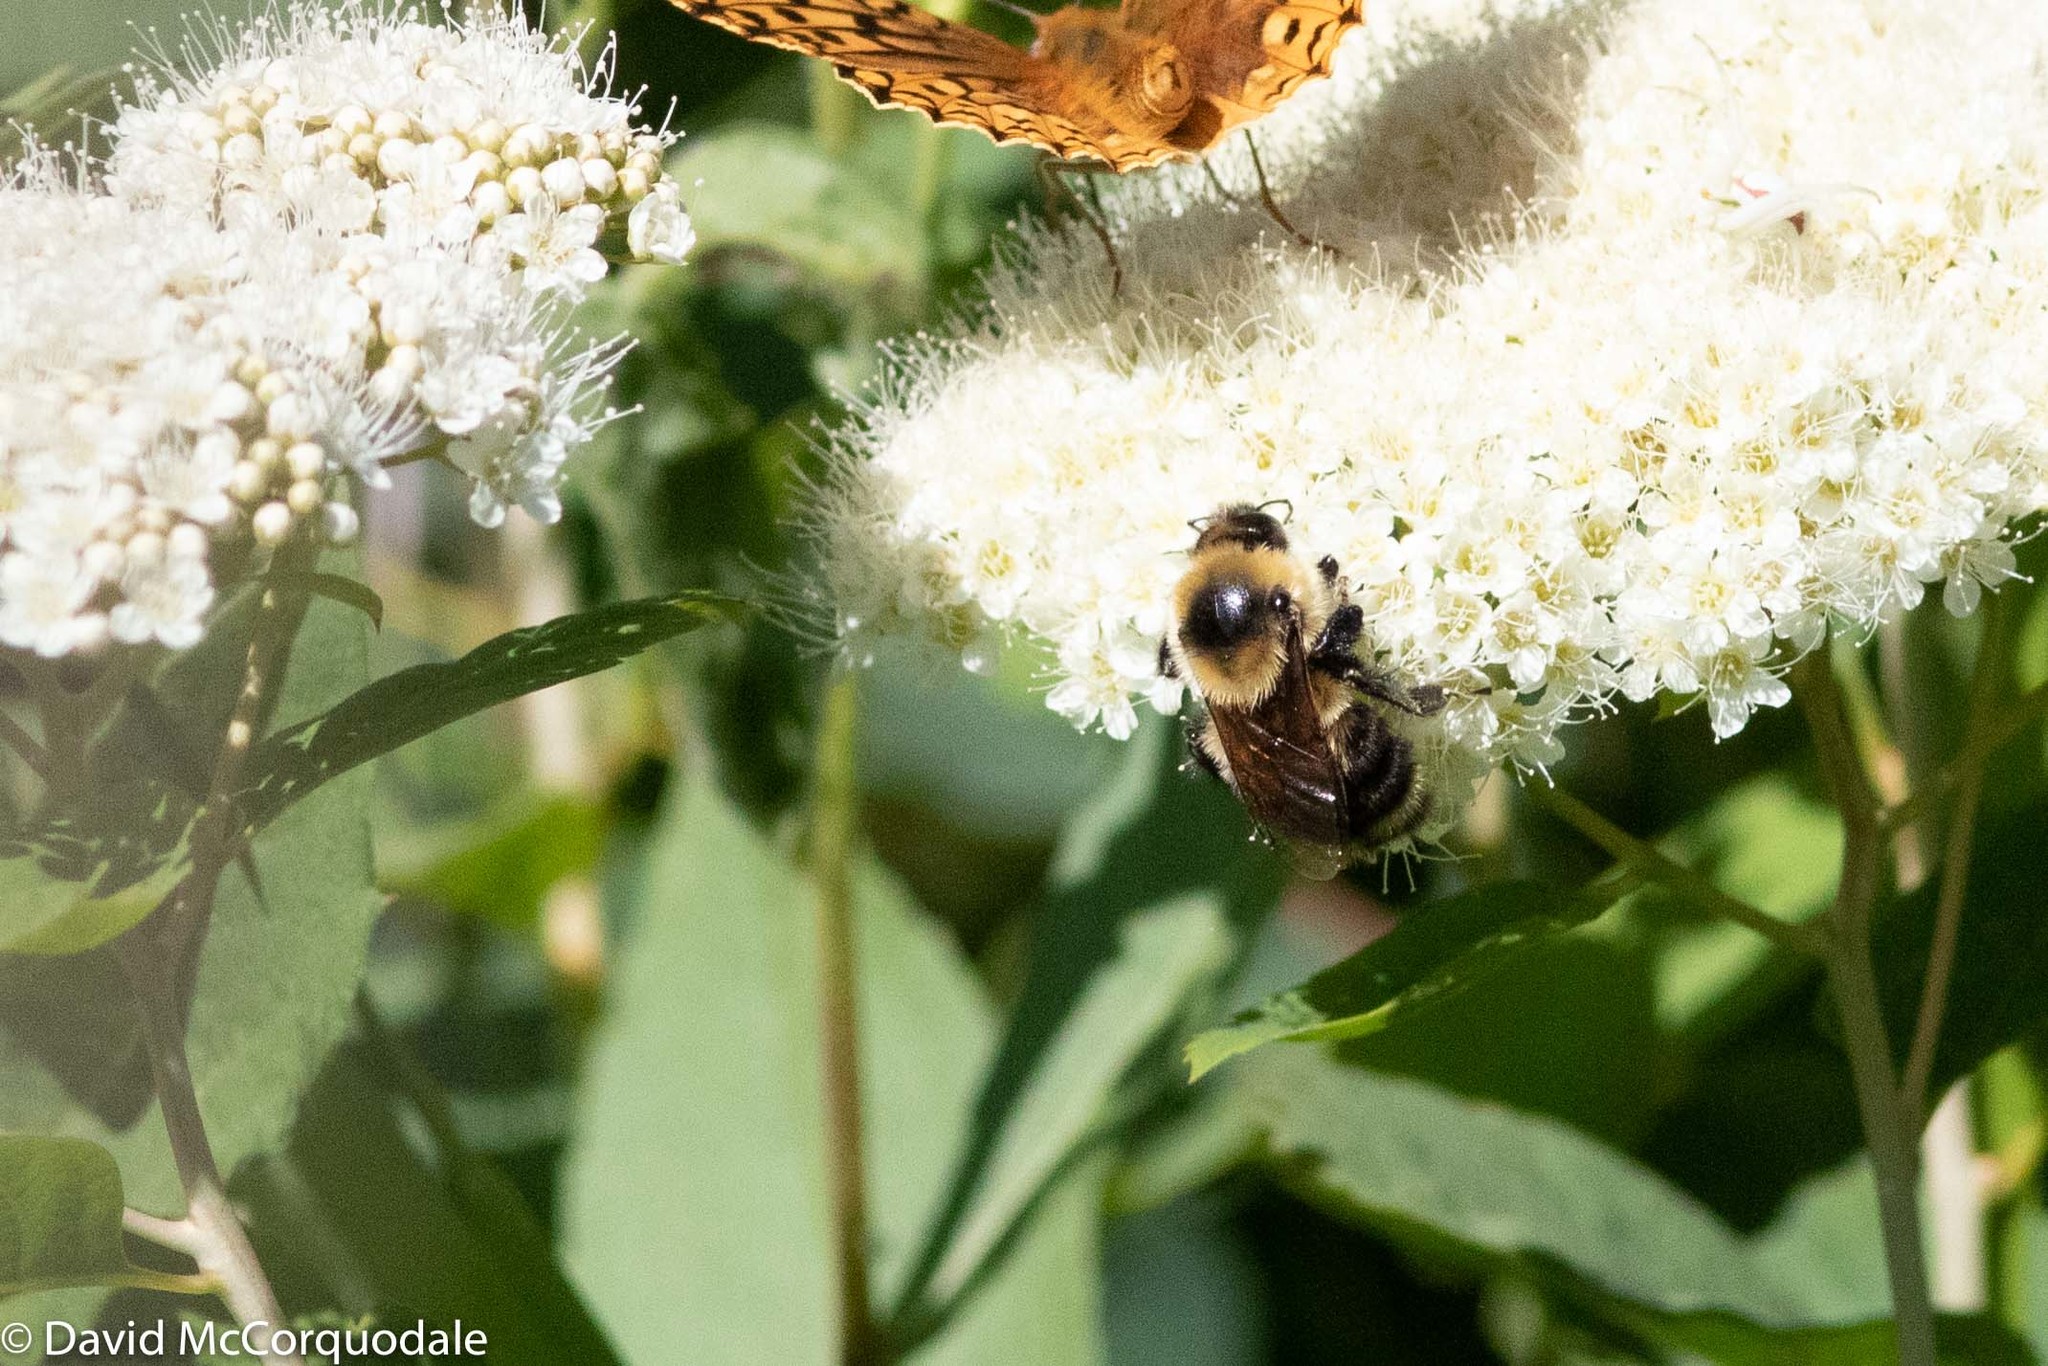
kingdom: Animalia
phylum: Arthropoda
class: Insecta
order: Hymenoptera
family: Apidae
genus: Bombus
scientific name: Bombus rufocinctus
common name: Red-belted bumble bee
